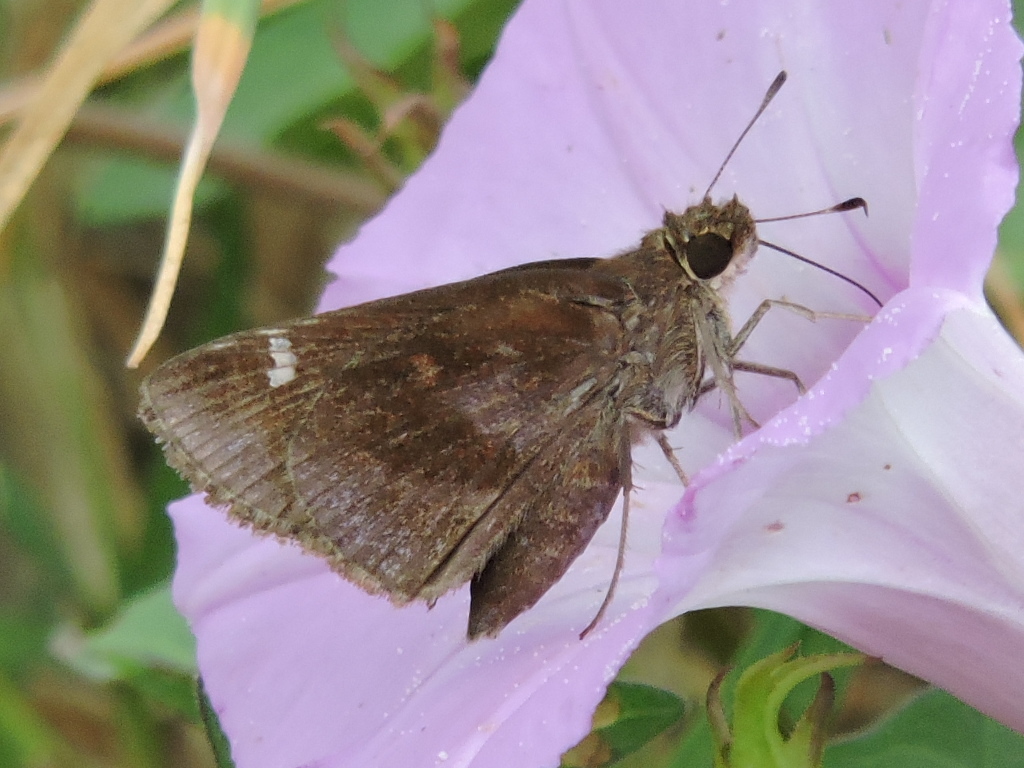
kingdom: Animalia
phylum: Arthropoda
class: Insecta
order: Lepidoptera
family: Hesperiidae
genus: Lerema
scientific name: Lerema accius
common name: Clouded skipper
